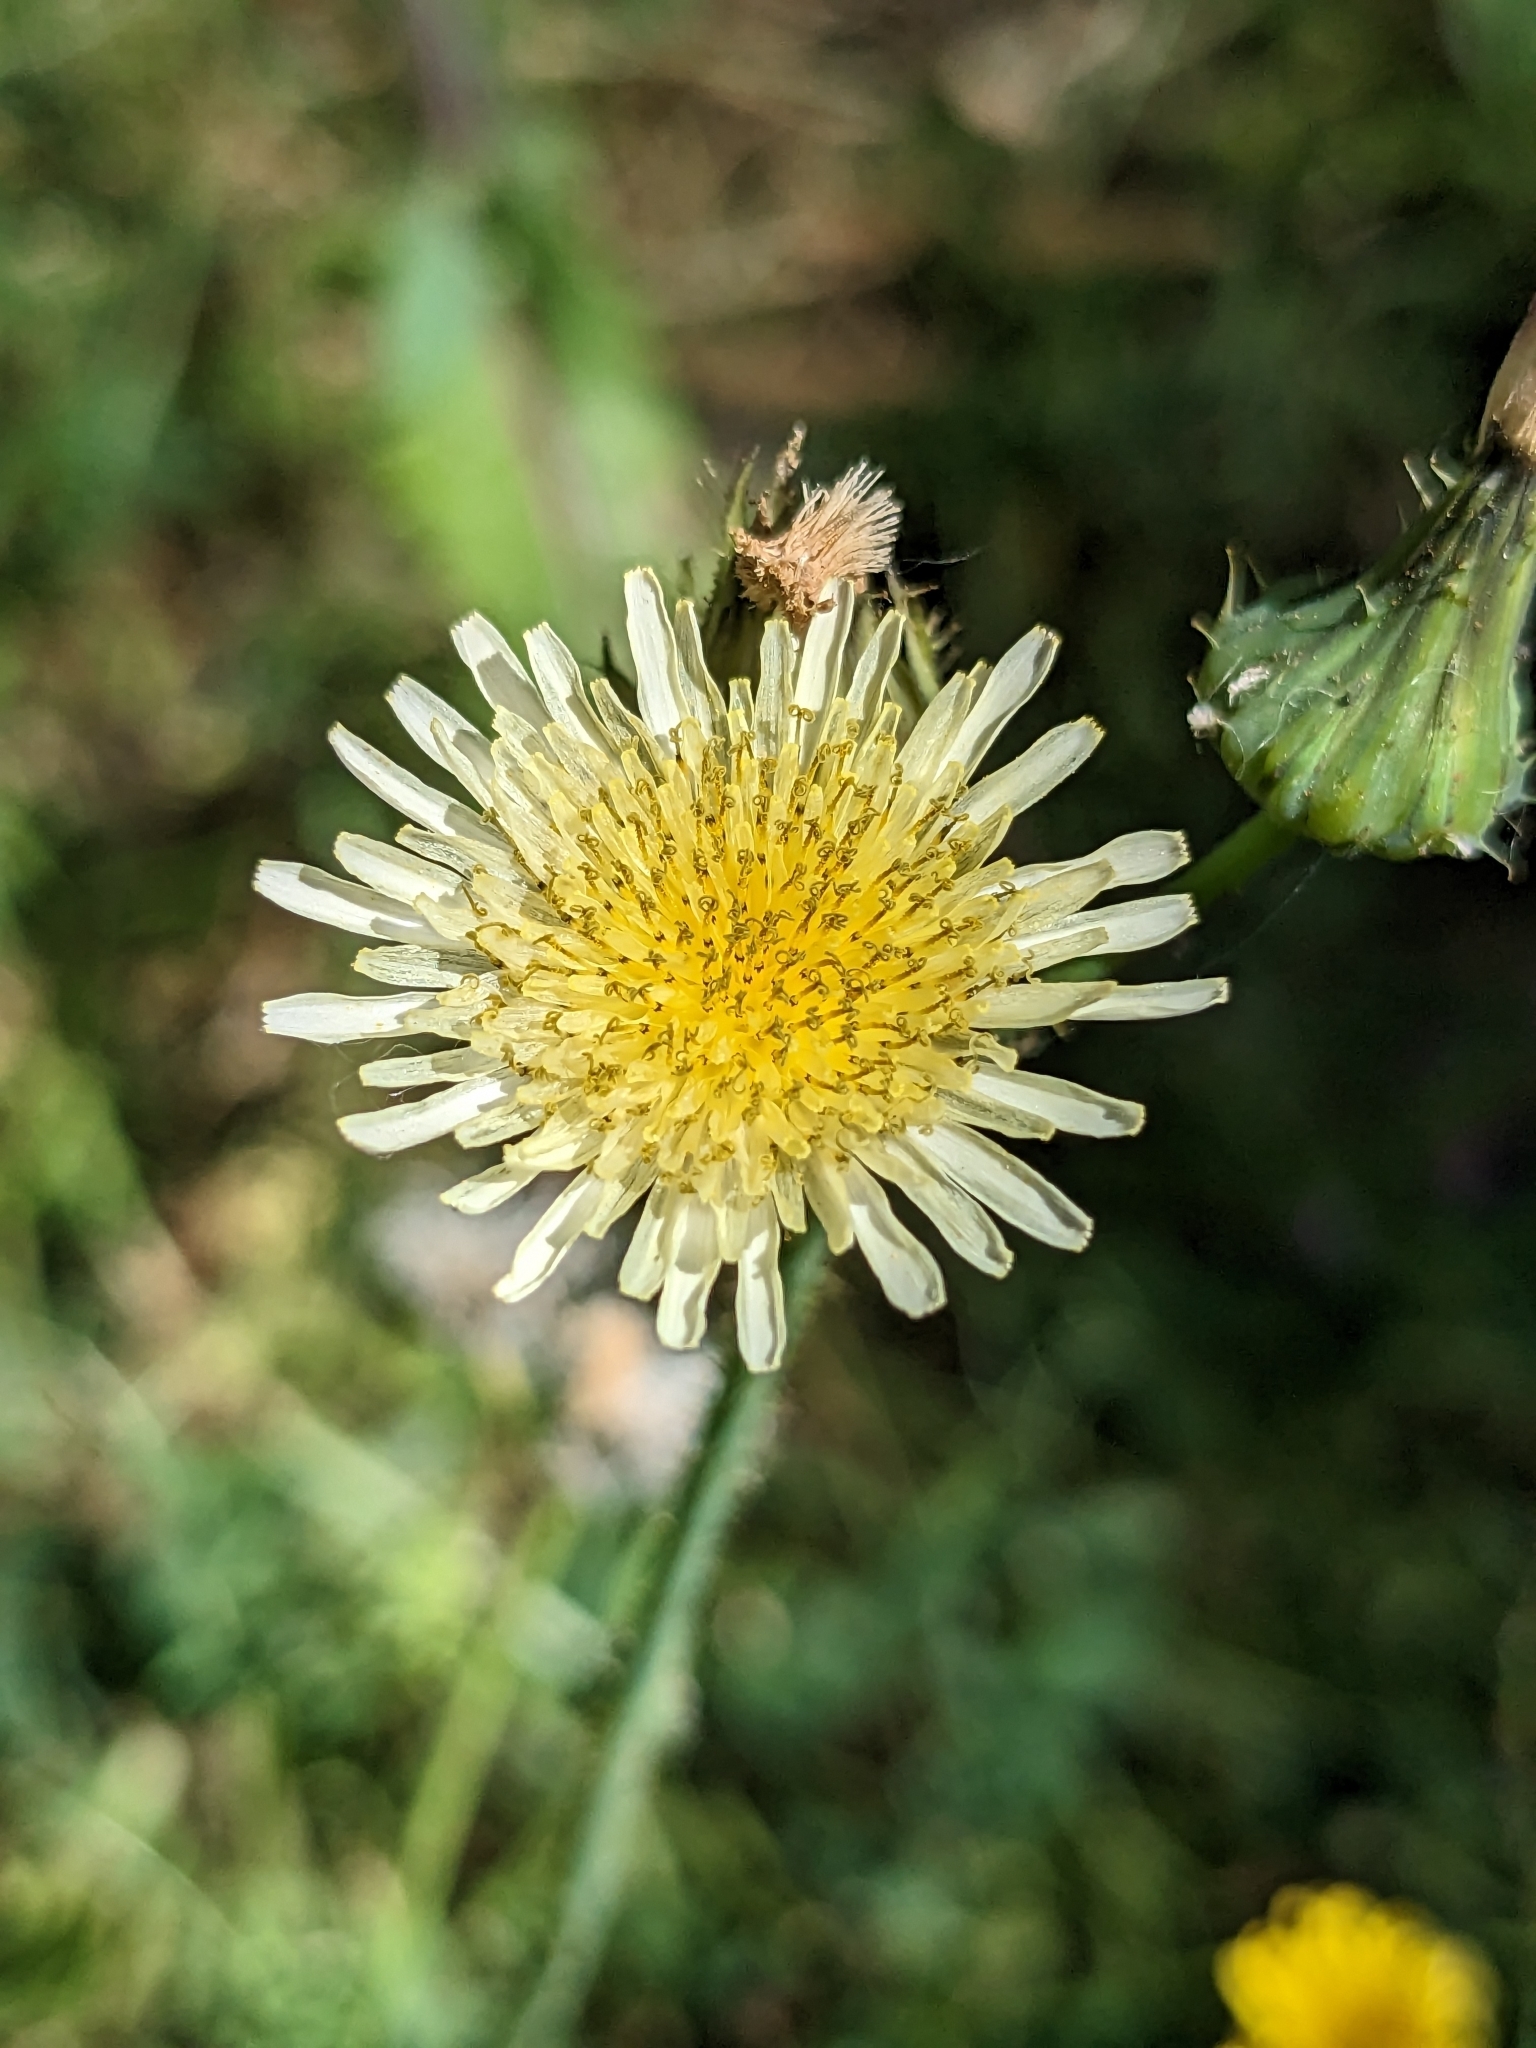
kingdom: Plantae
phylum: Tracheophyta
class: Magnoliopsida
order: Asterales
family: Asteraceae
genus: Sonchus
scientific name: Sonchus oleraceus
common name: Common sowthistle
